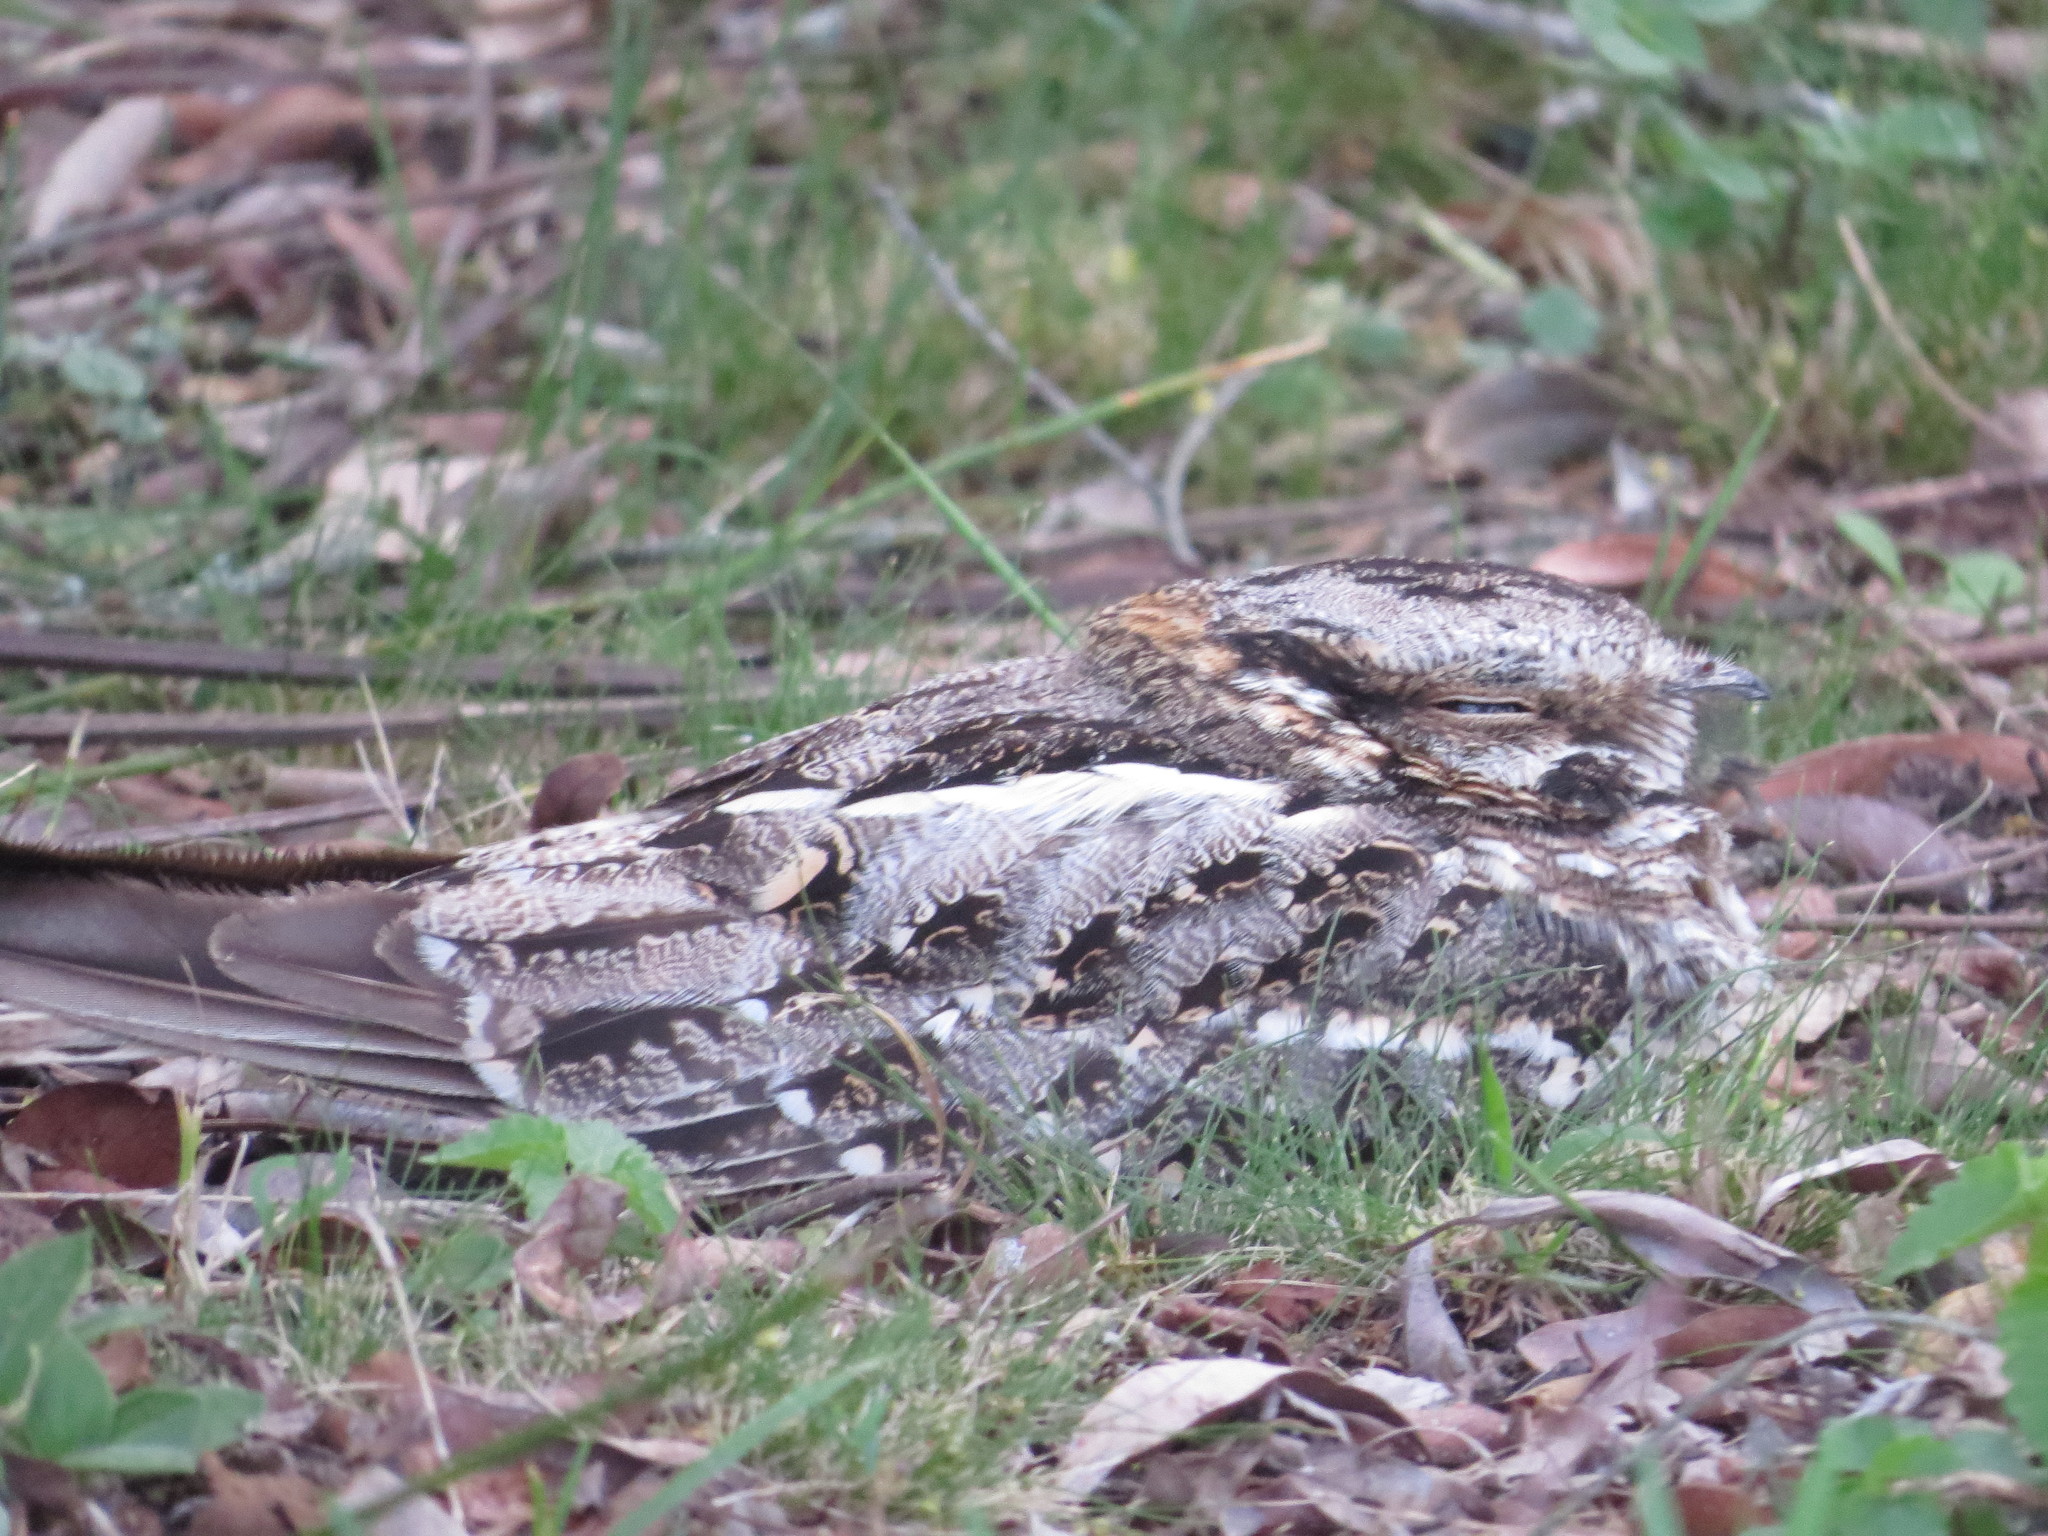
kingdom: Animalia
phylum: Chordata
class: Aves
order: Caprimulgiformes
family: Caprimulgidae
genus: Hydropsalis
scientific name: Hydropsalis torquata
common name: Scissor-tailed nightjar
